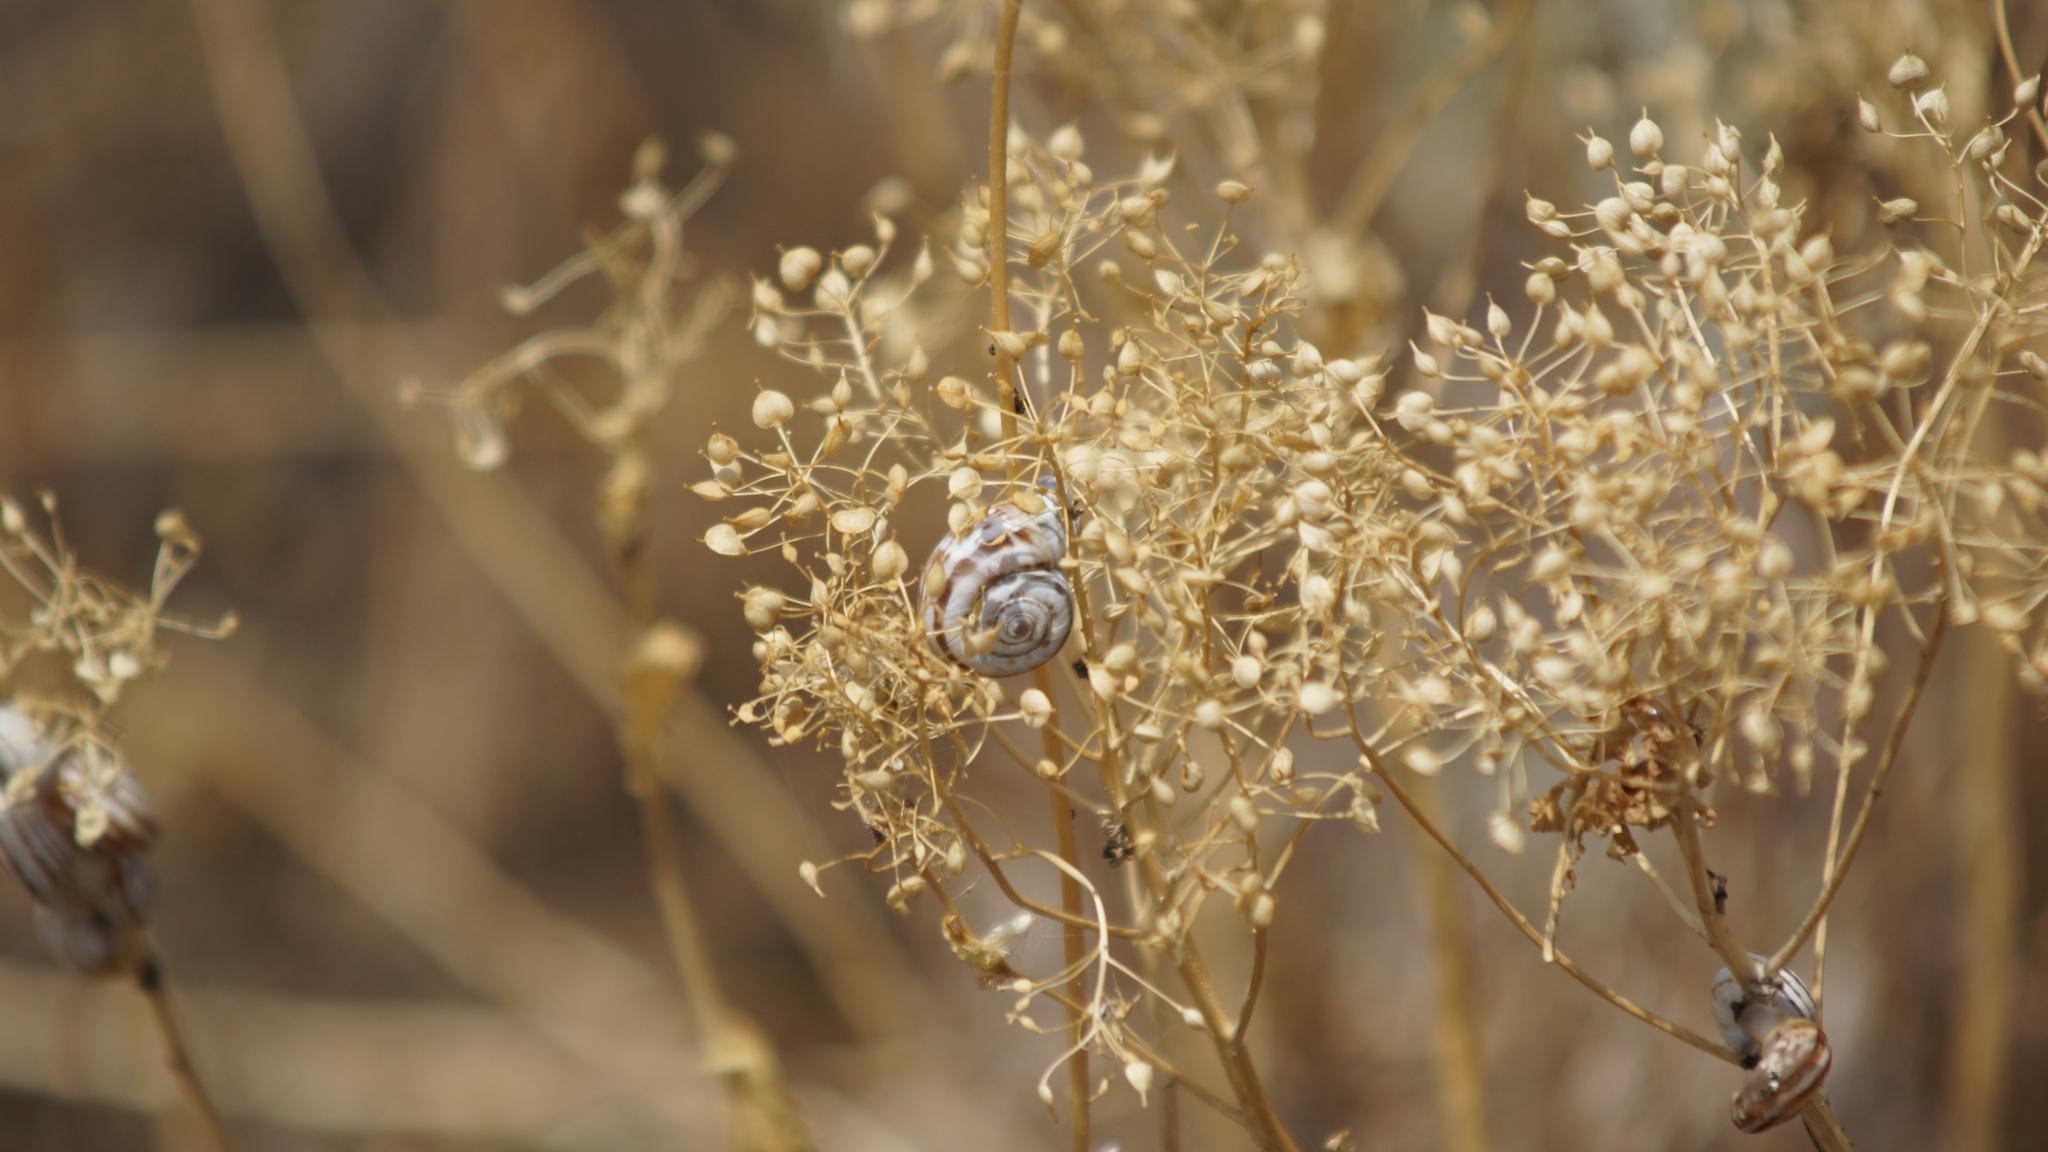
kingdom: Animalia
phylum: Mollusca
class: Gastropoda
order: Stylommatophora
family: Geomitridae
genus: Xeropicta
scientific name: Xeropicta derbentina
